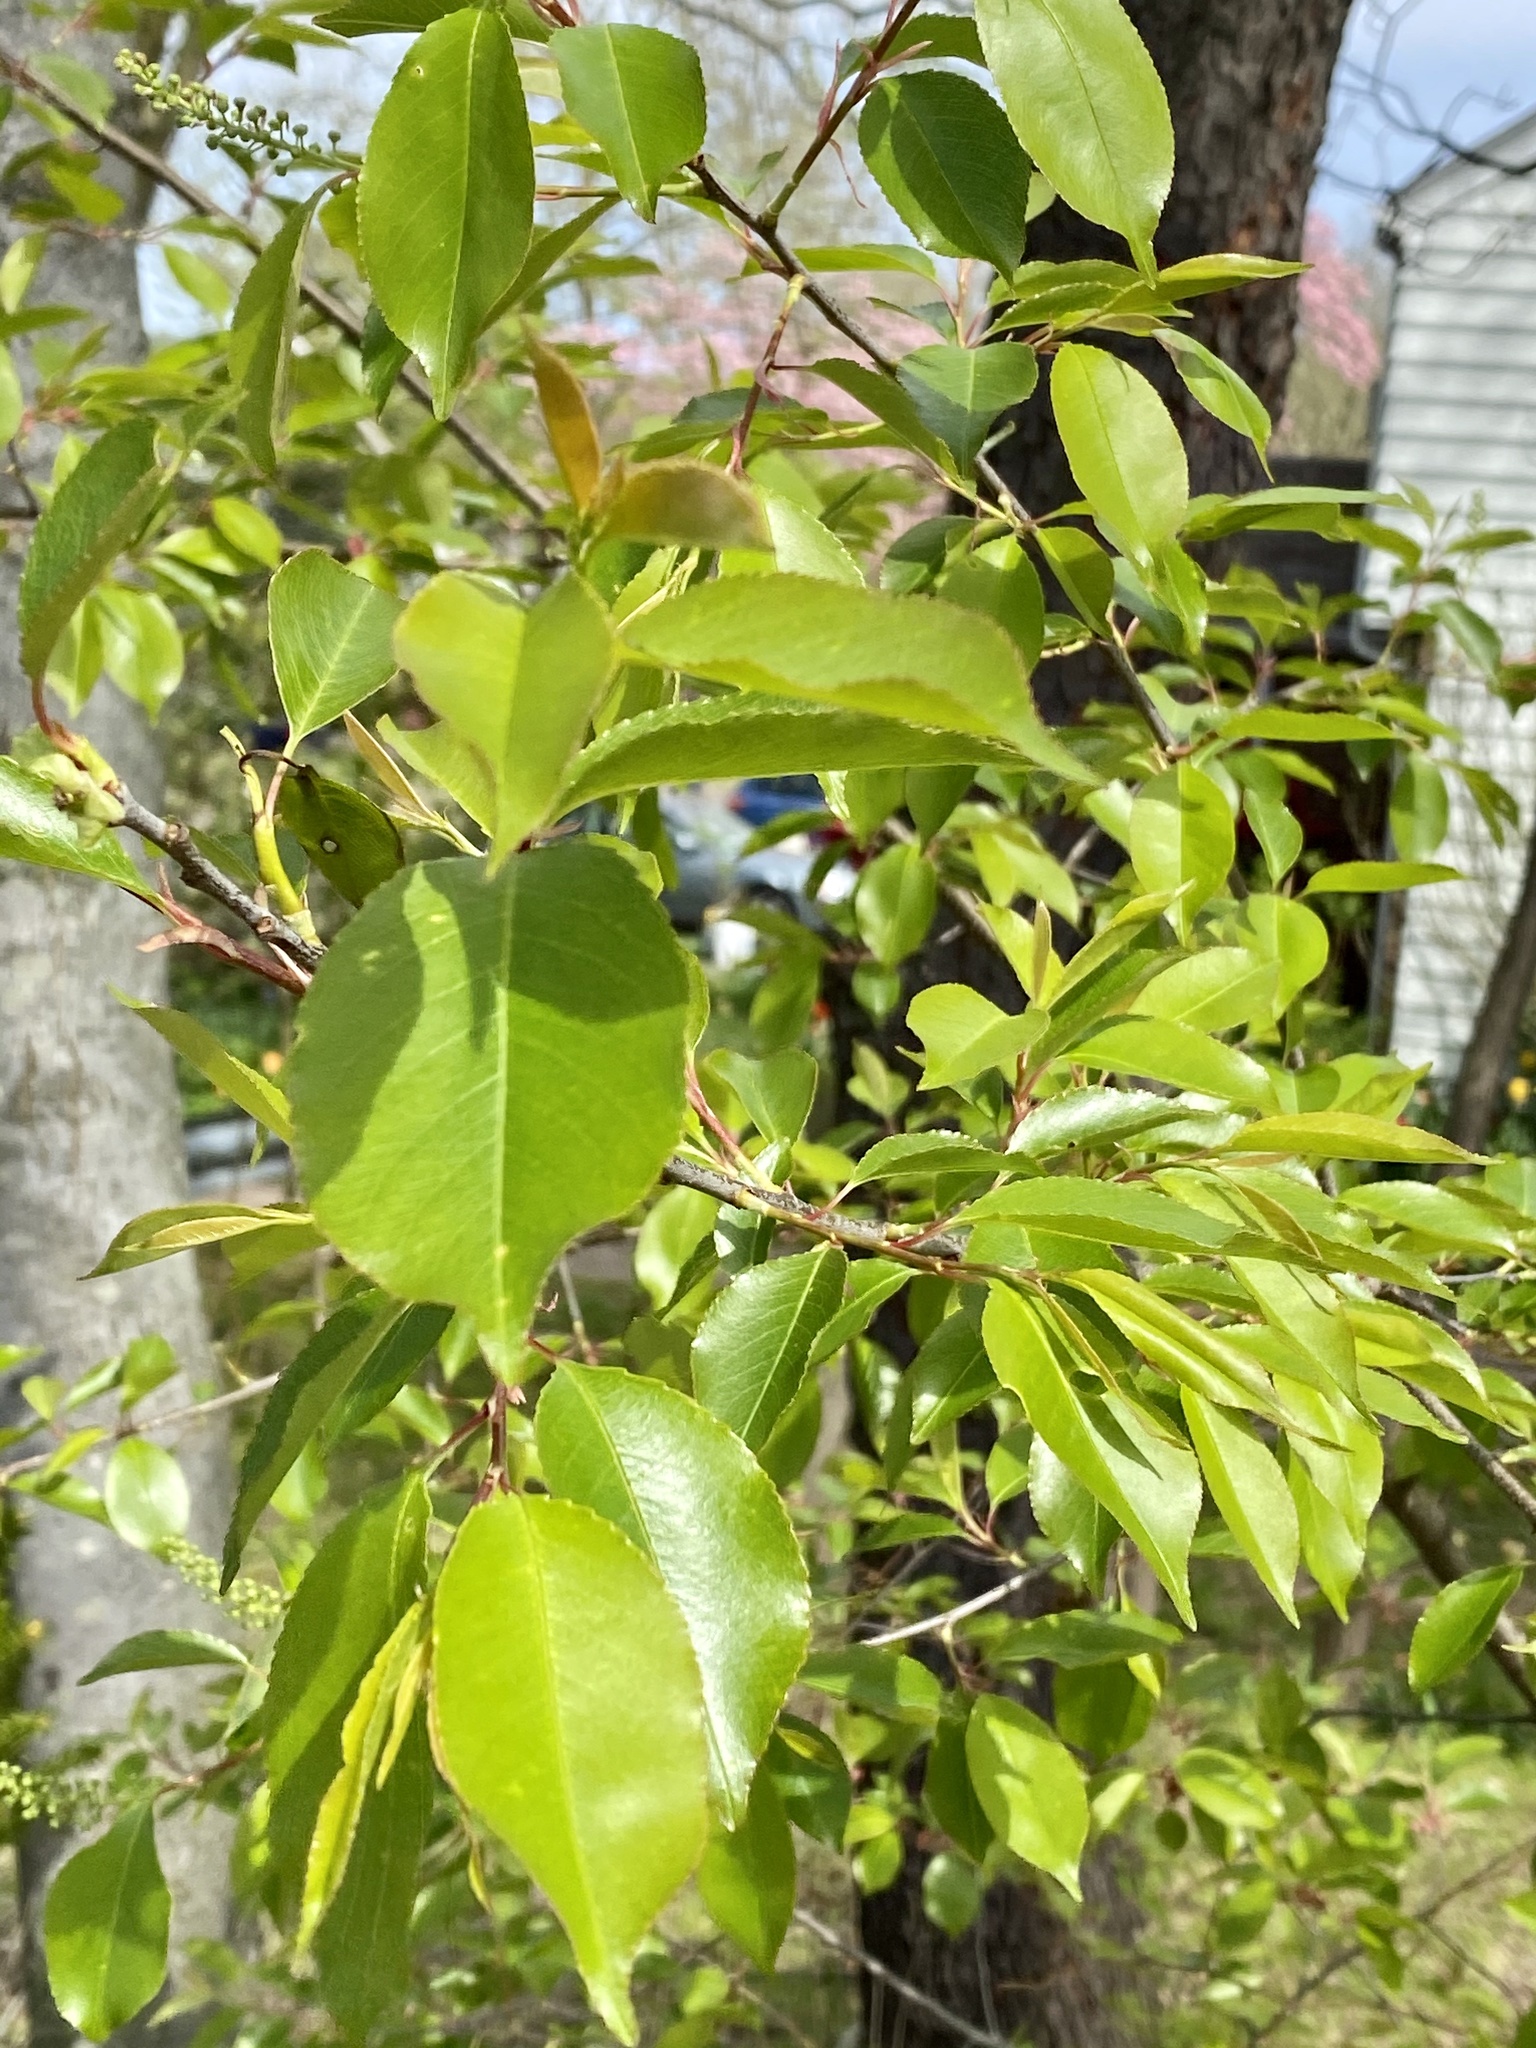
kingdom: Plantae
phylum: Tracheophyta
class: Magnoliopsida
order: Rosales
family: Rosaceae
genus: Prunus
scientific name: Prunus serotina
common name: Black cherry
